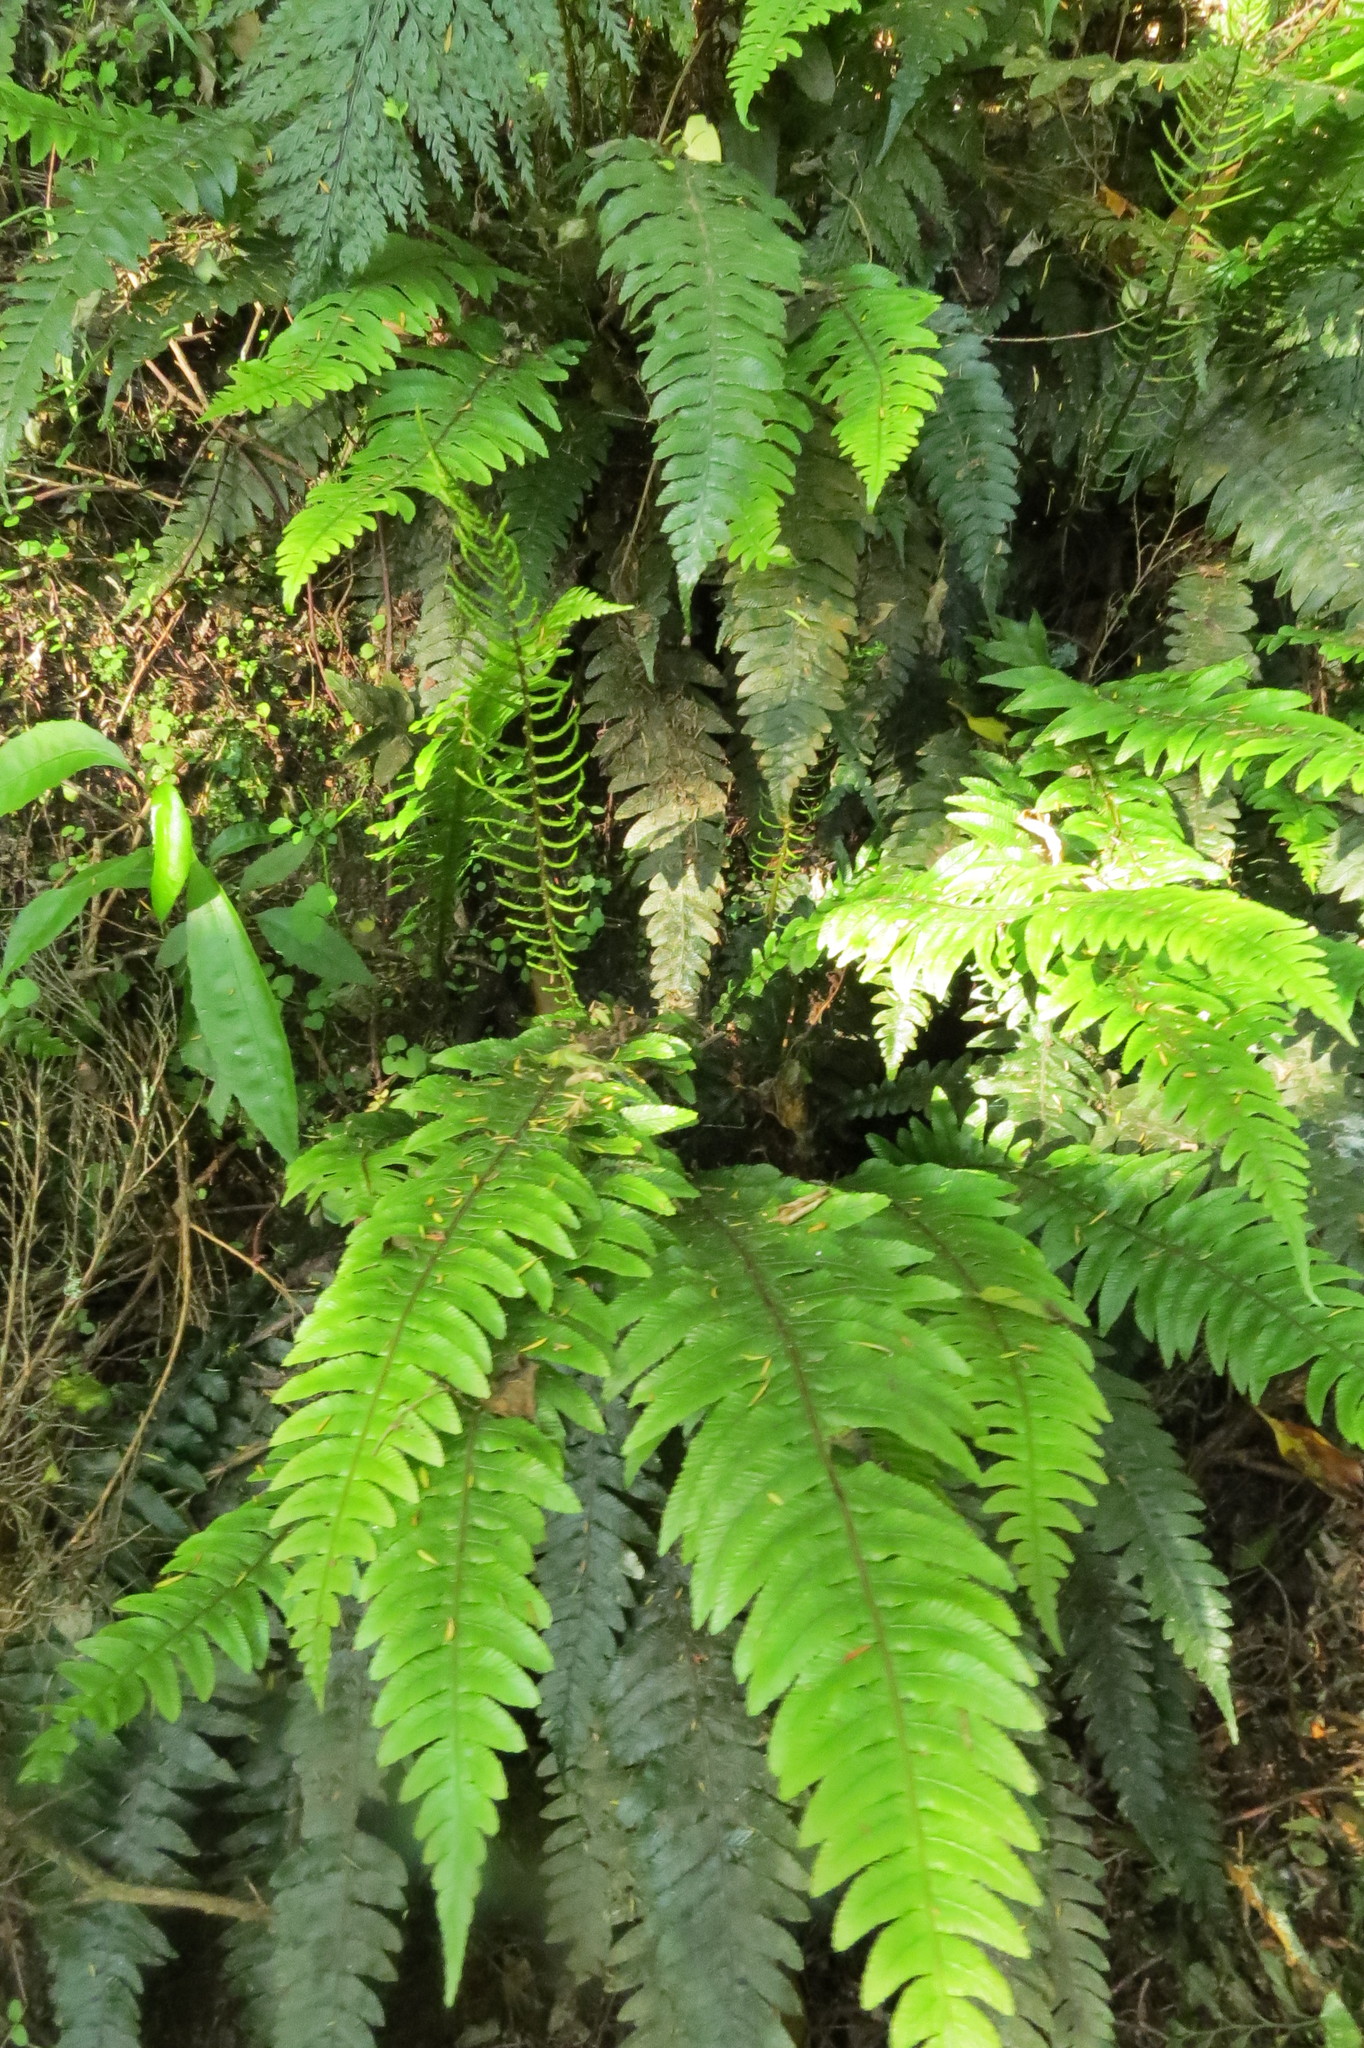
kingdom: Plantae
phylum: Tracheophyta
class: Polypodiopsida
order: Polypodiales
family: Blechnaceae
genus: Austroblechnum
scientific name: Austroblechnum lanceolatum
